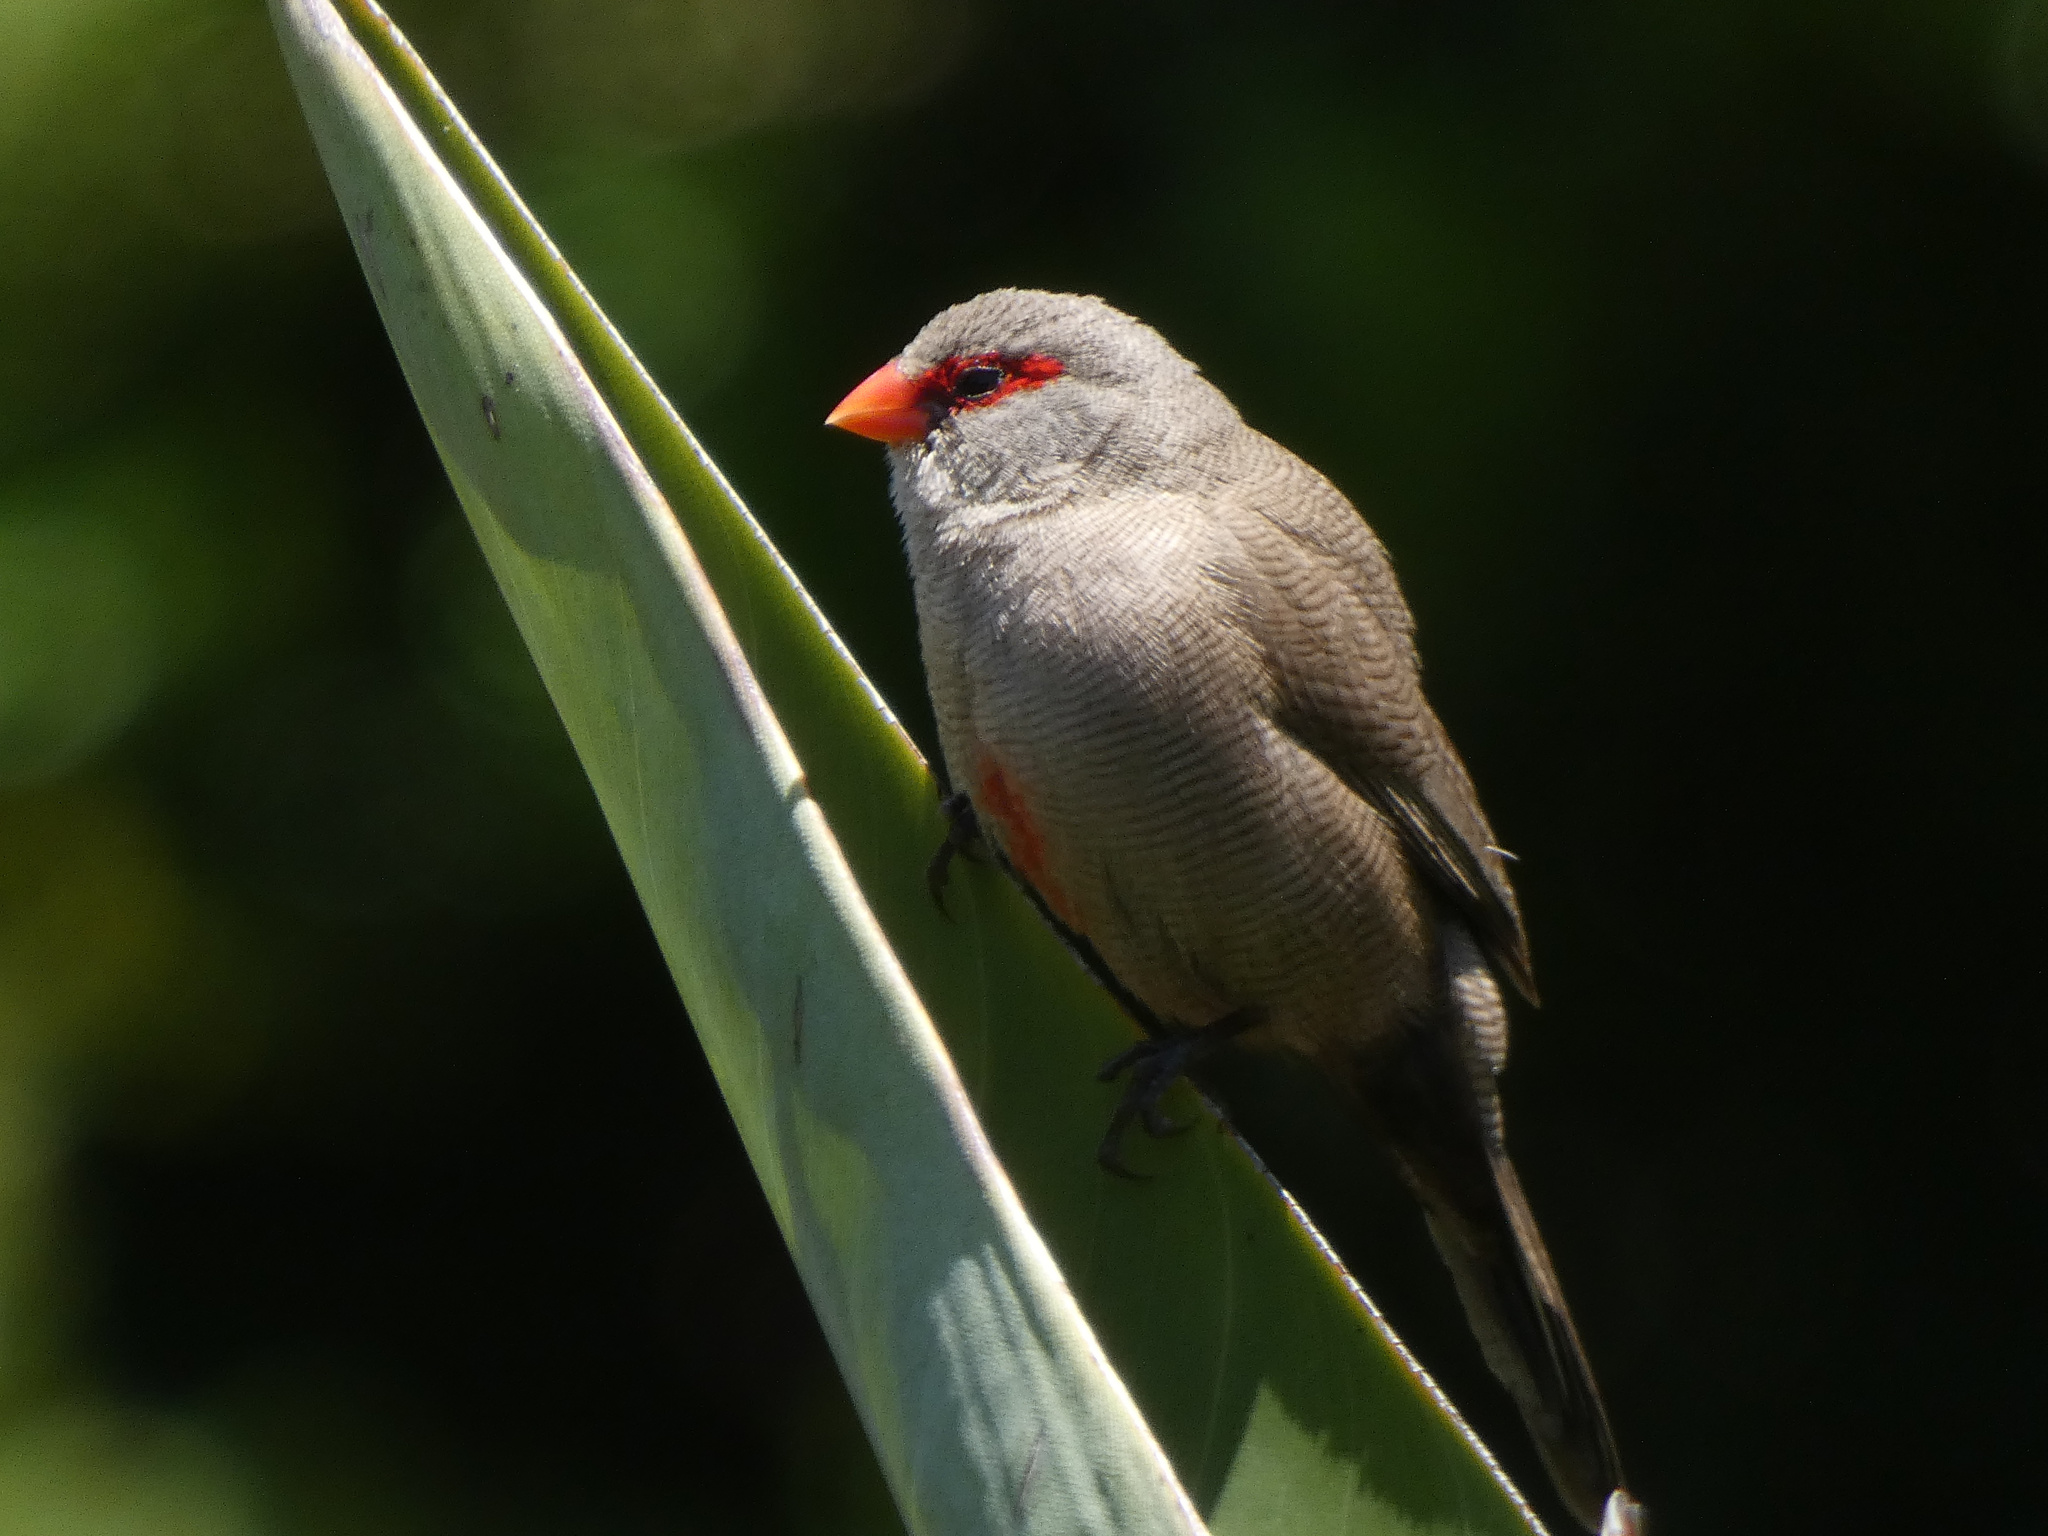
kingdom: Animalia
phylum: Chordata
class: Aves
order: Passeriformes
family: Estrildidae
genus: Estrilda
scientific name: Estrilda astrild
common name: Common waxbill
